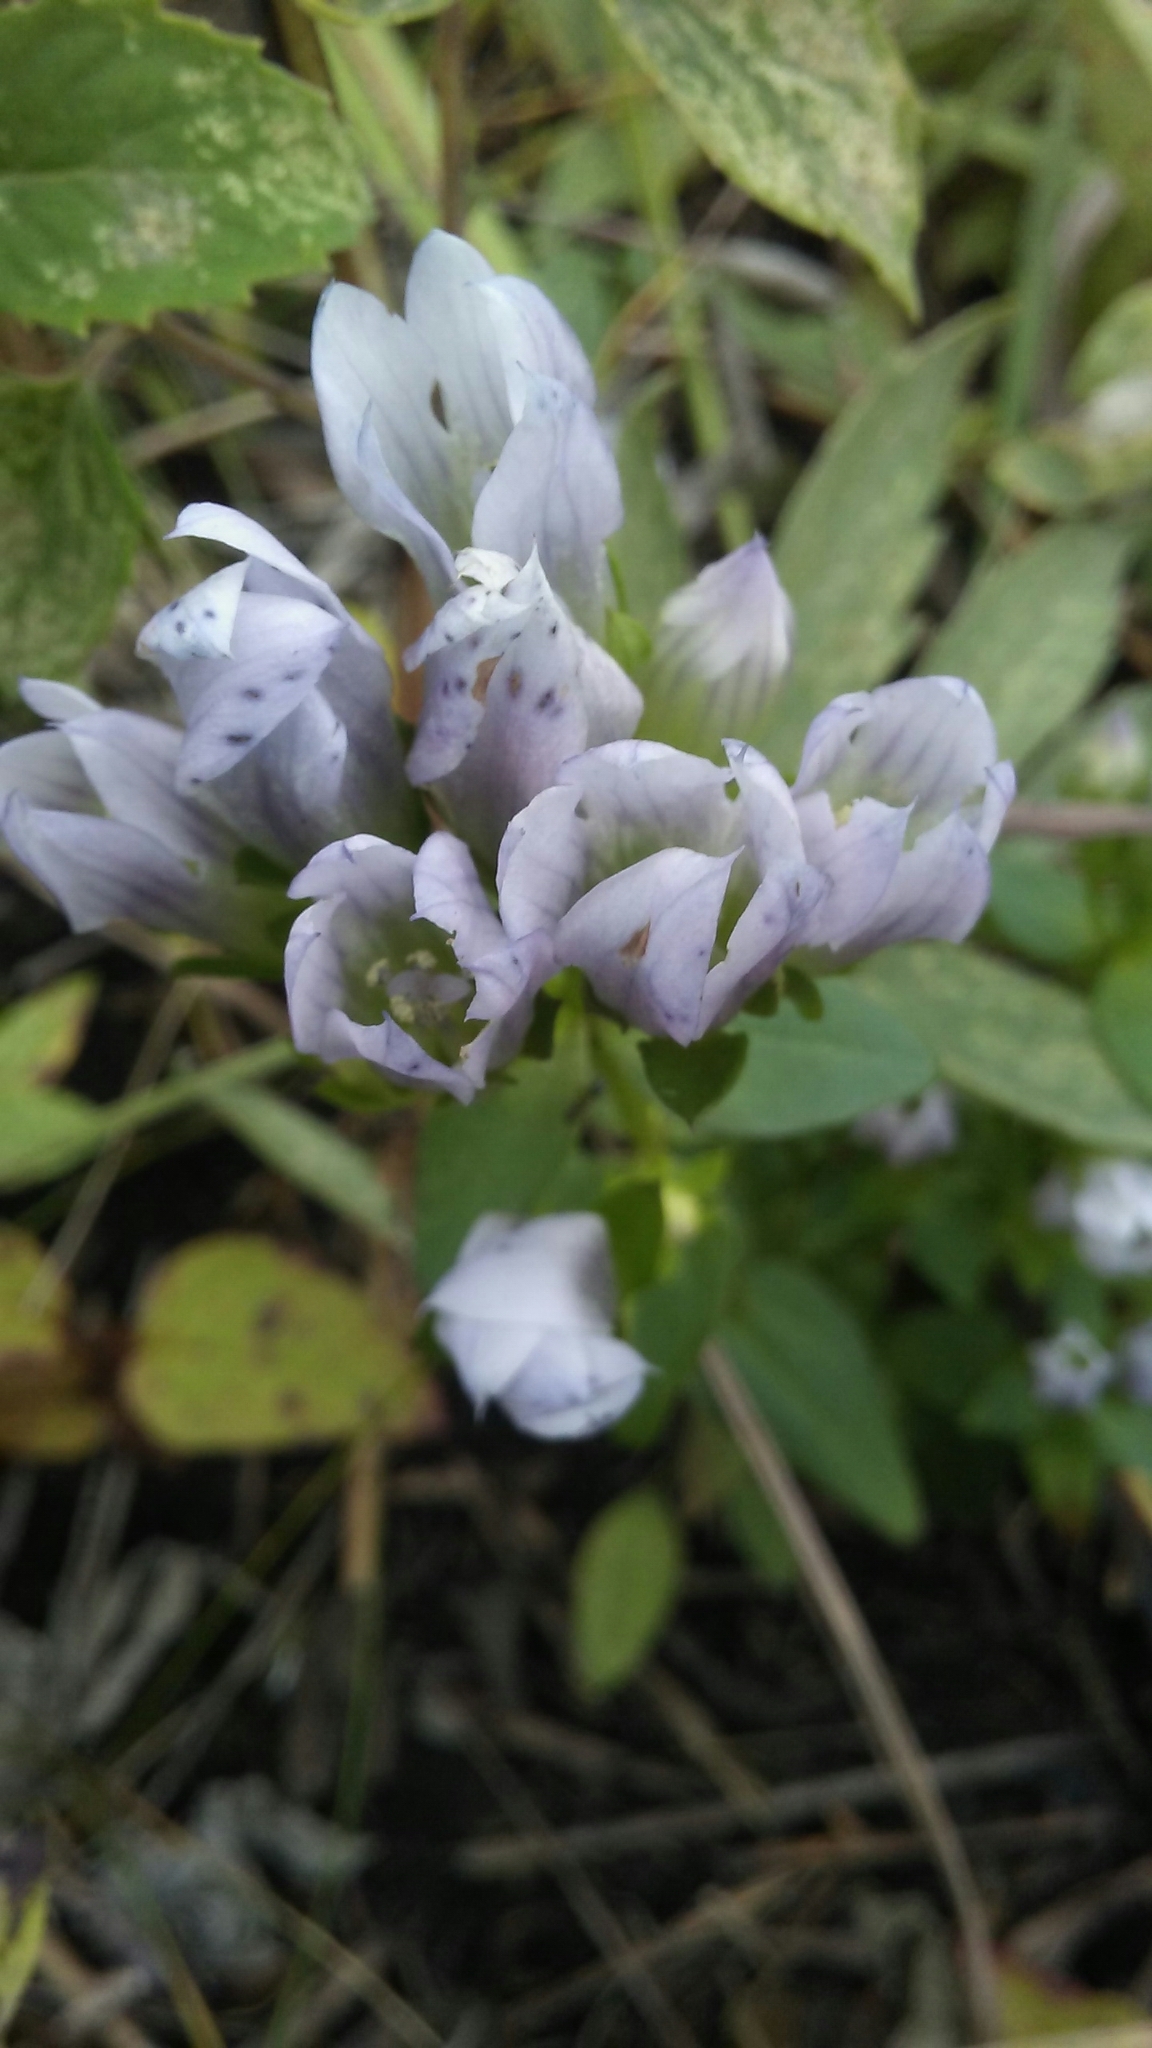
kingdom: Plantae
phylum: Tracheophyta
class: Magnoliopsida
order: Gentianales
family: Gentianaceae
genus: Gentianella
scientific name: Gentianella quinquefolia
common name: Agueweed
